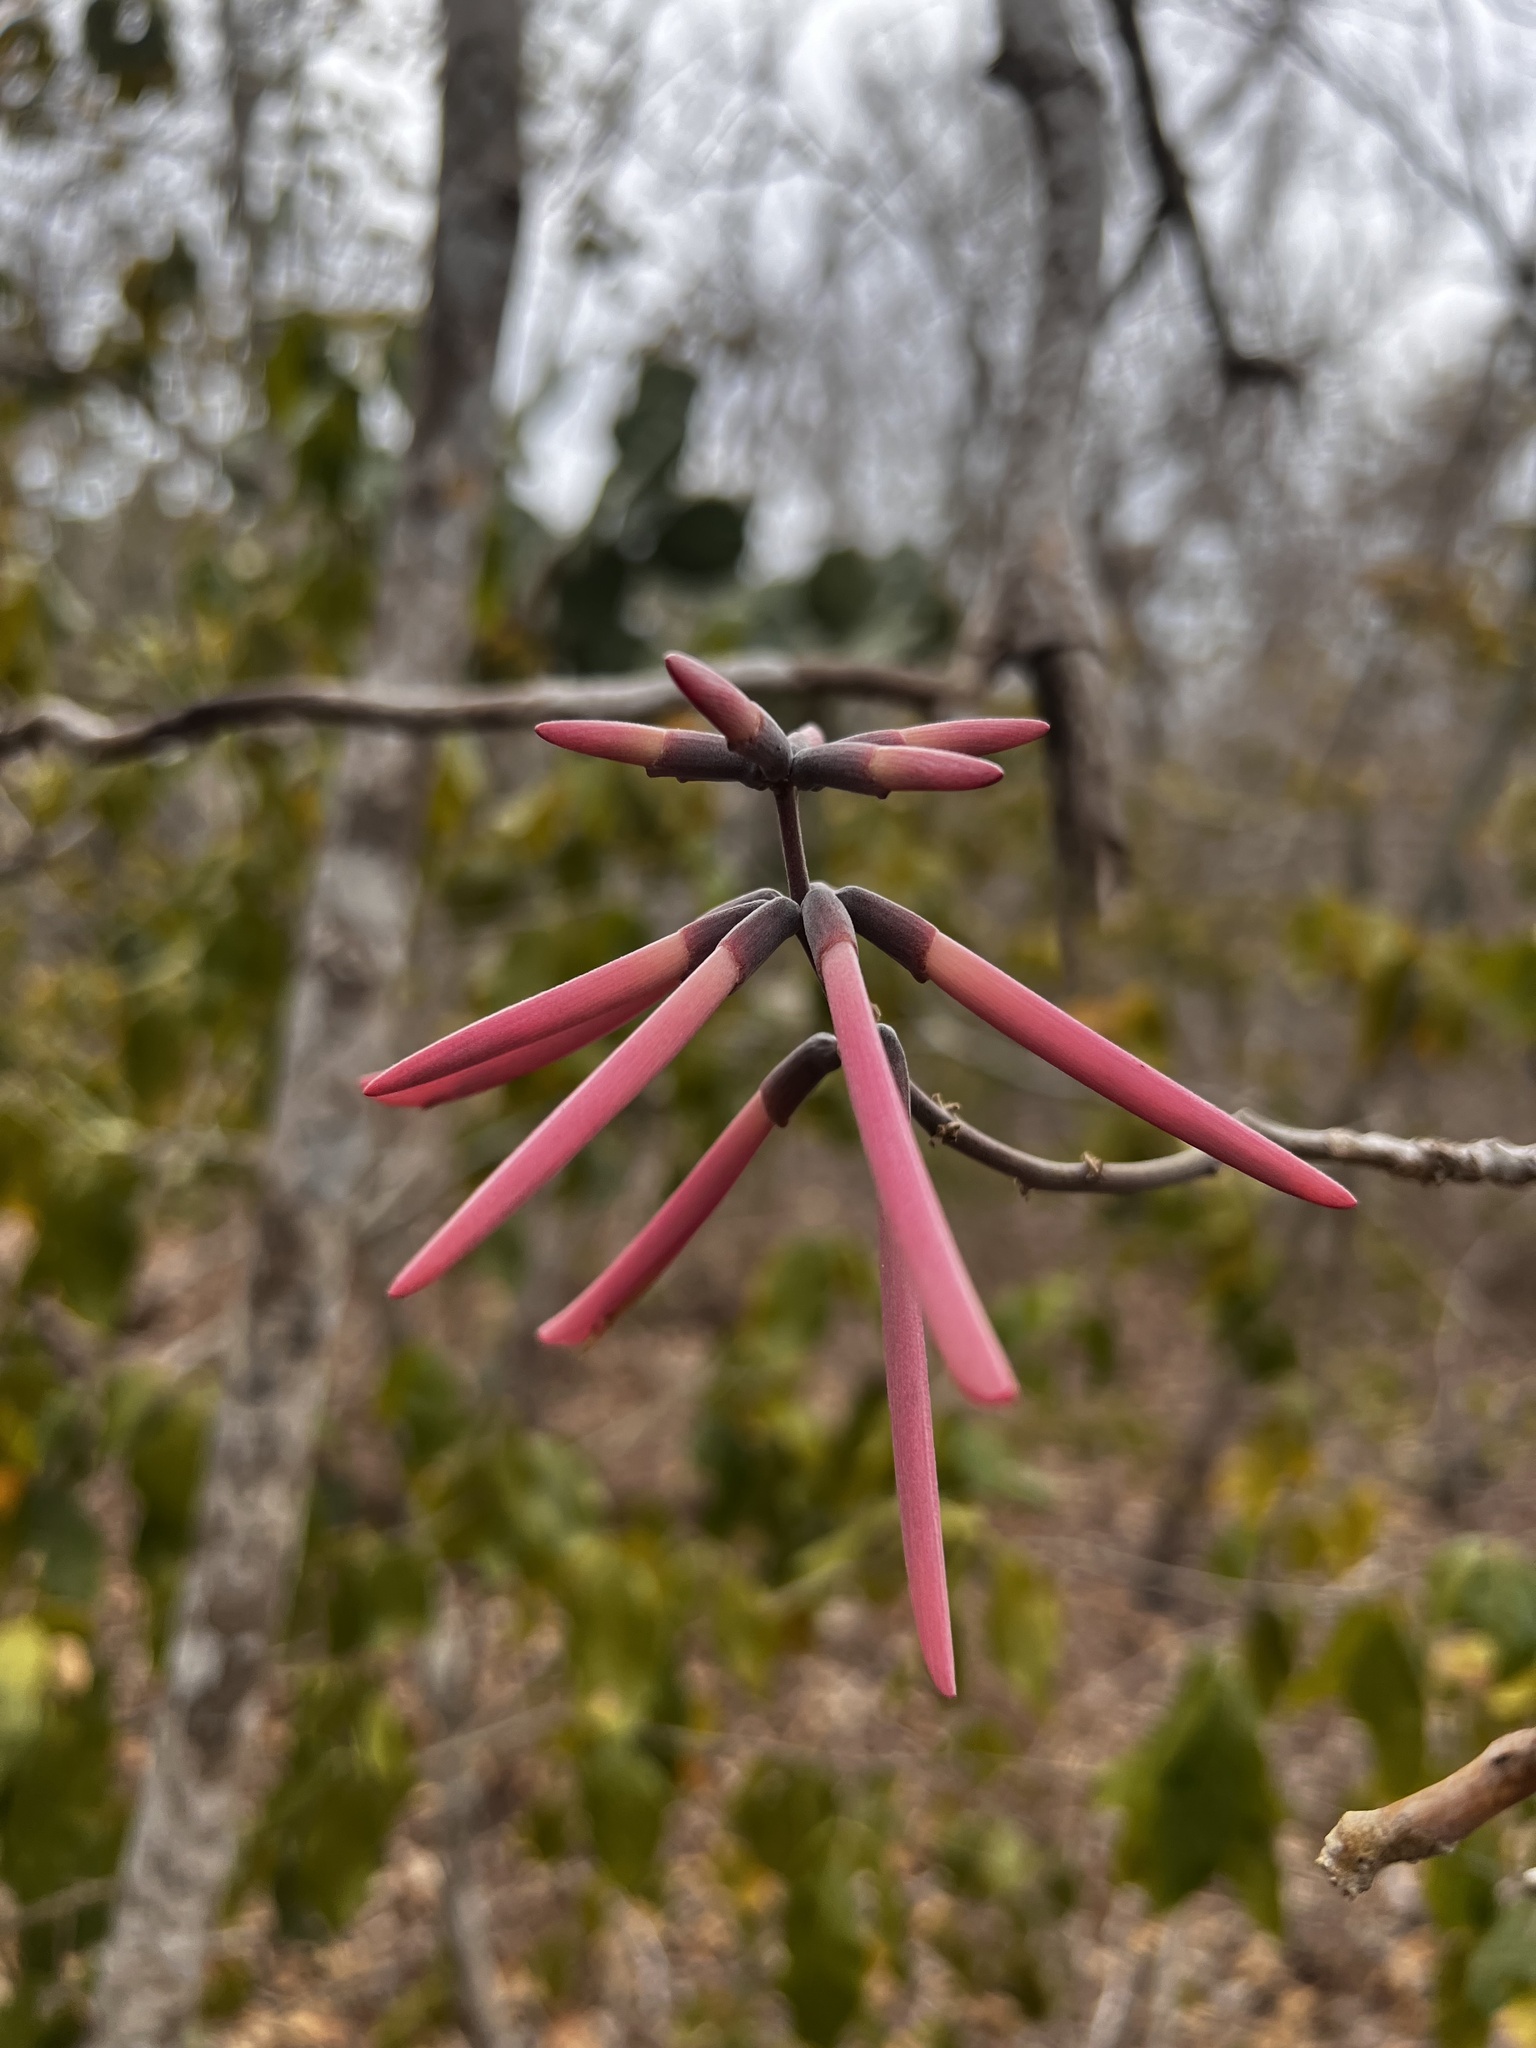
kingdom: Plantae
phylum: Tracheophyta
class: Magnoliopsida
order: Fabales
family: Fabaceae
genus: Erythrina
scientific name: Erythrina lanata
